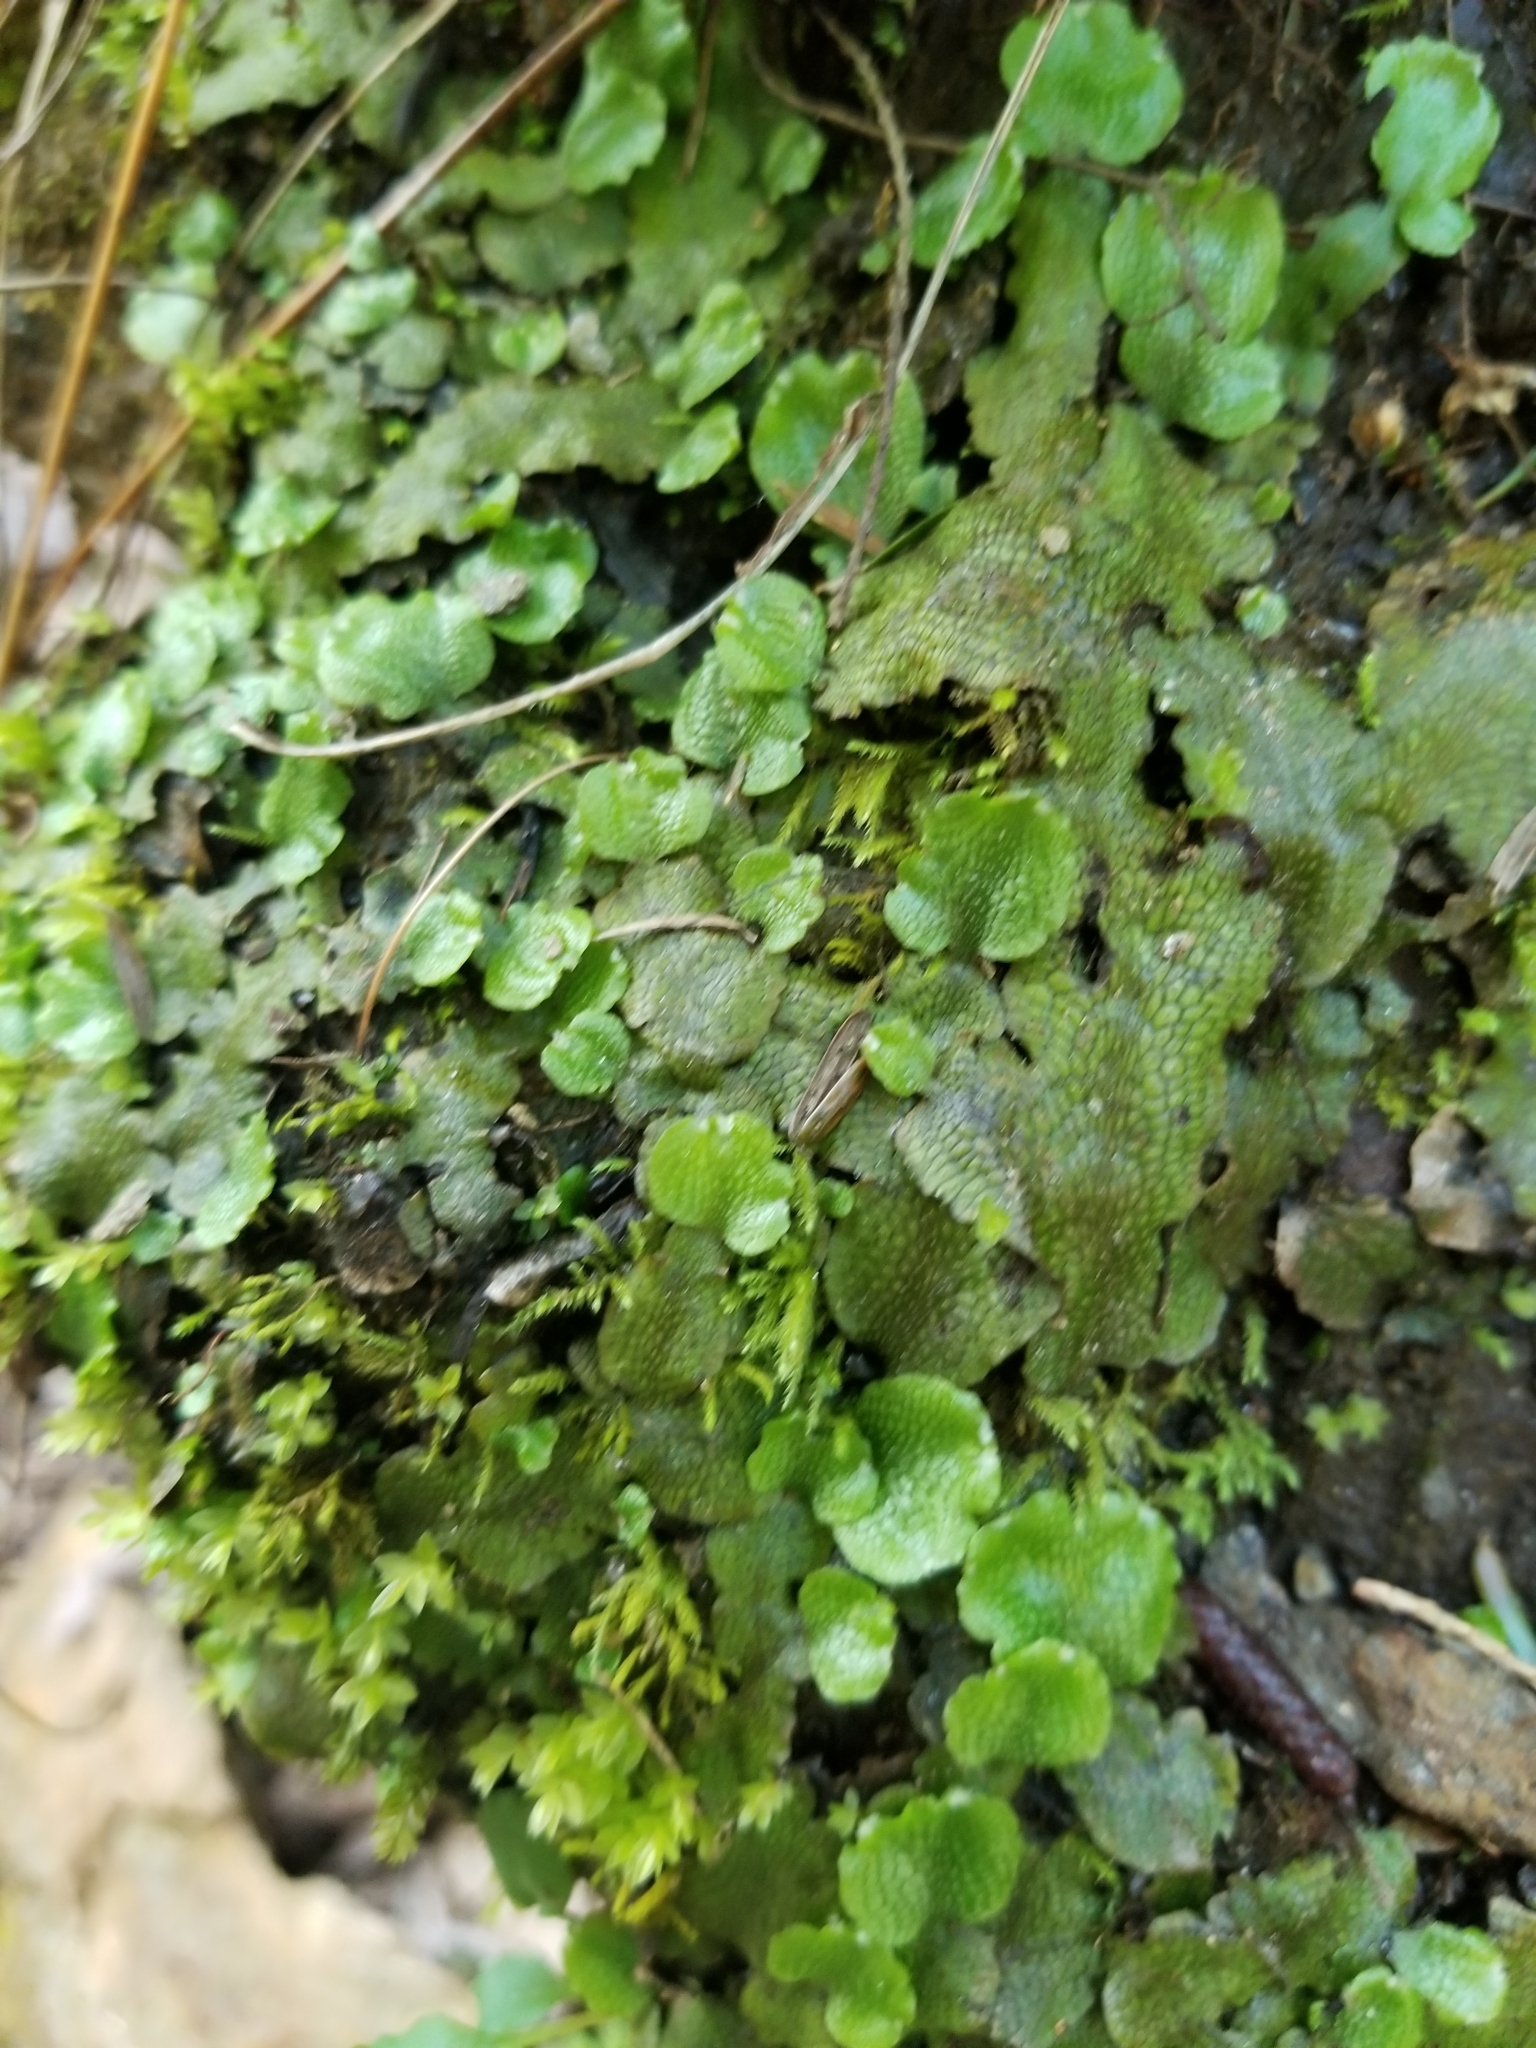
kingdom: Plantae
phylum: Marchantiophyta
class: Marchantiopsida
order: Marchantiales
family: Conocephalaceae
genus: Conocephalum
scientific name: Conocephalum salebrosum
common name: Cat-tongue liverwort
